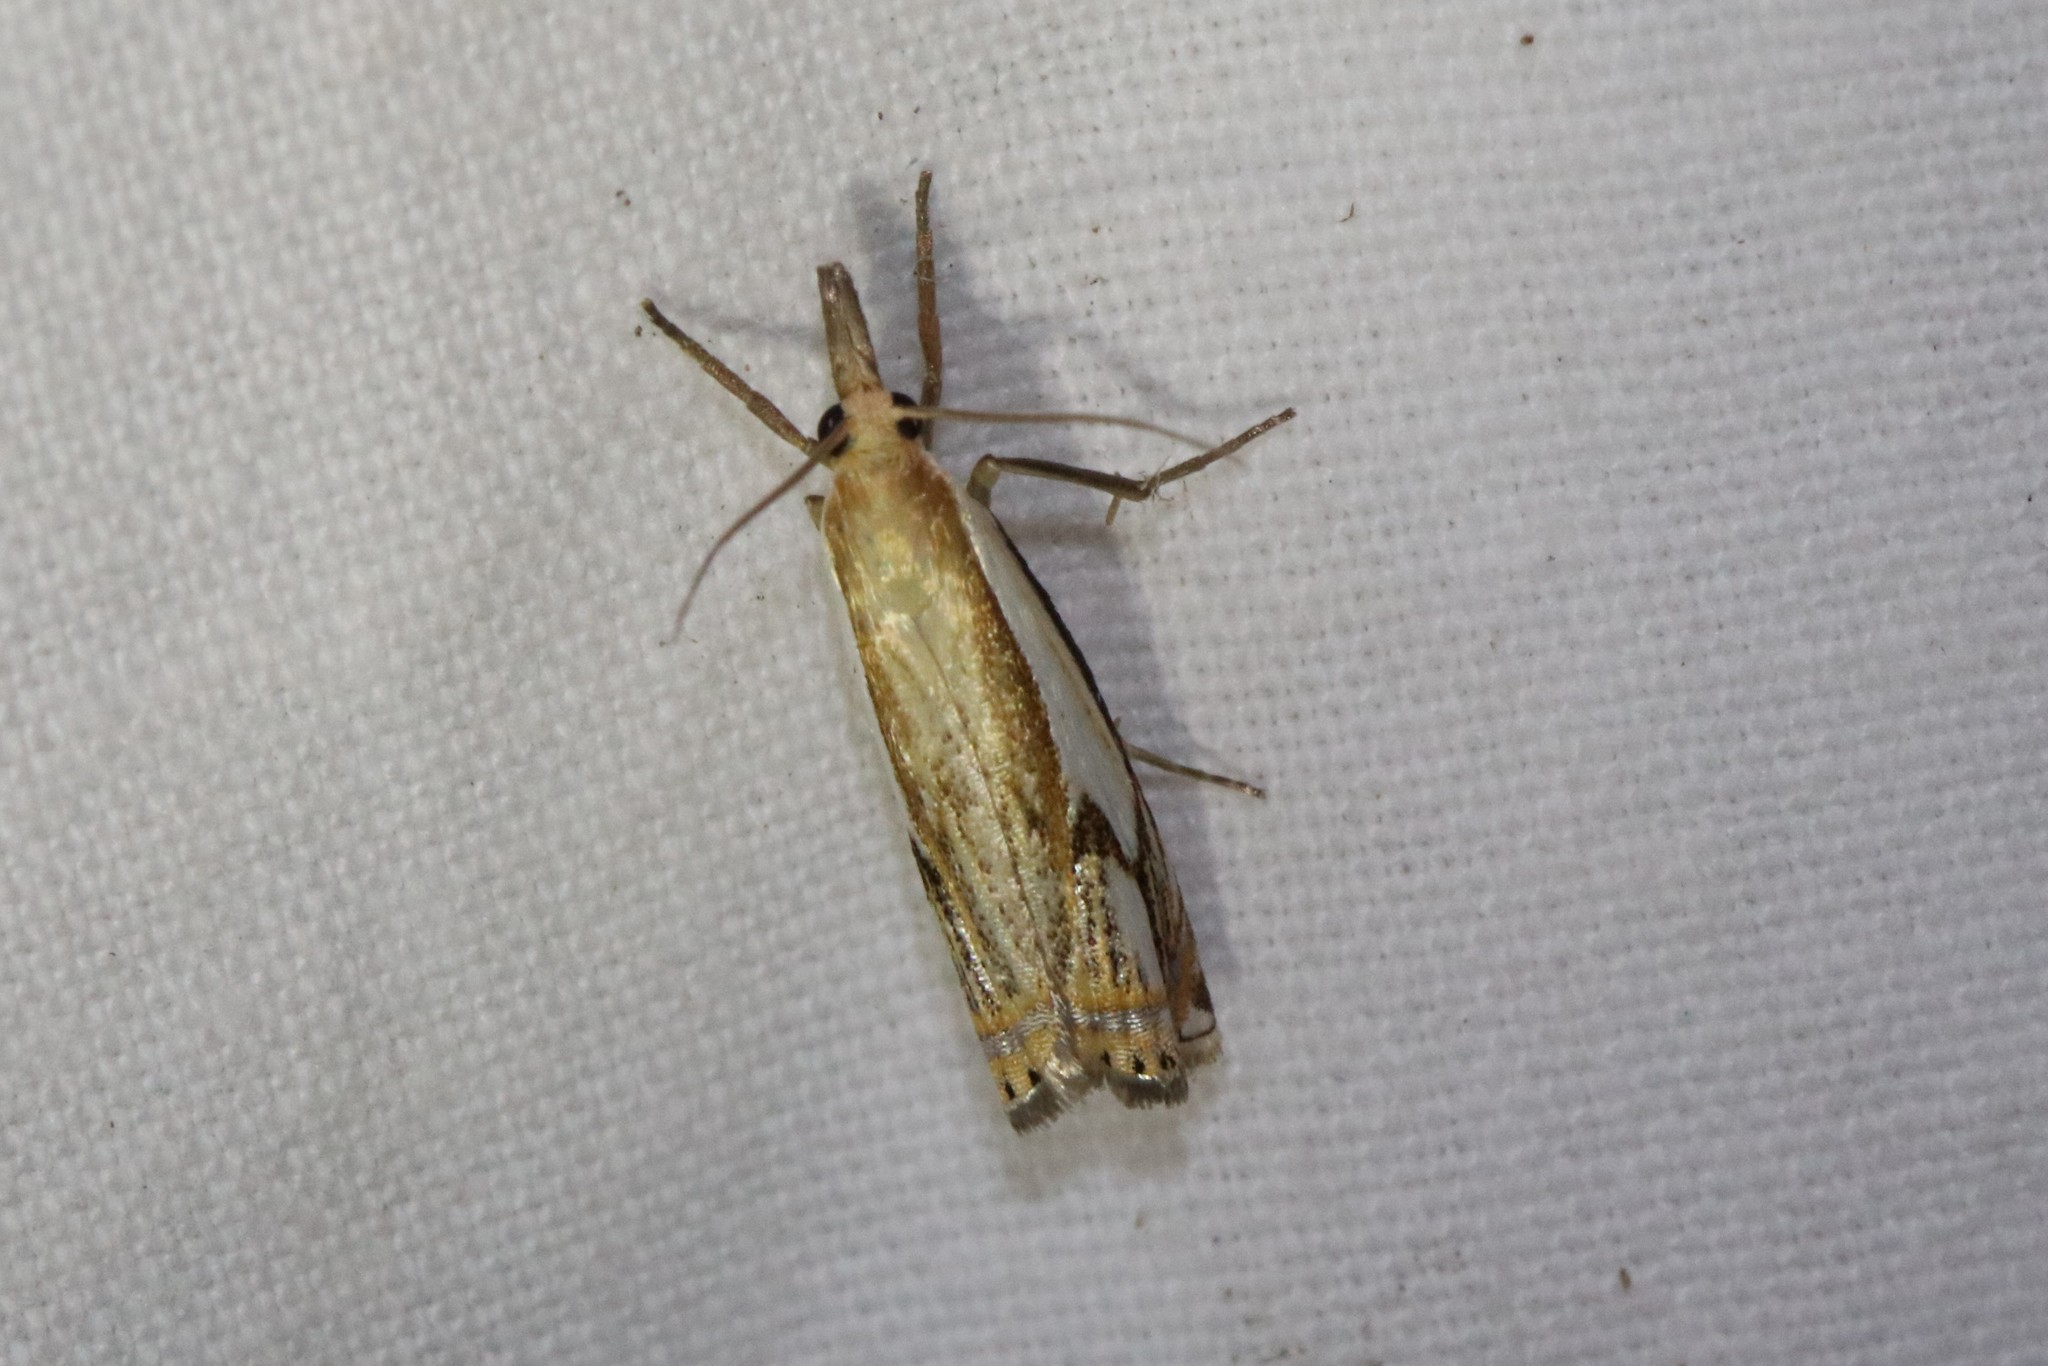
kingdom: Animalia
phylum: Arthropoda
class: Insecta
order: Lepidoptera
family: Crambidae
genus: Crambus
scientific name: Crambus agitatellus
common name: Double-banded grass-veneer
